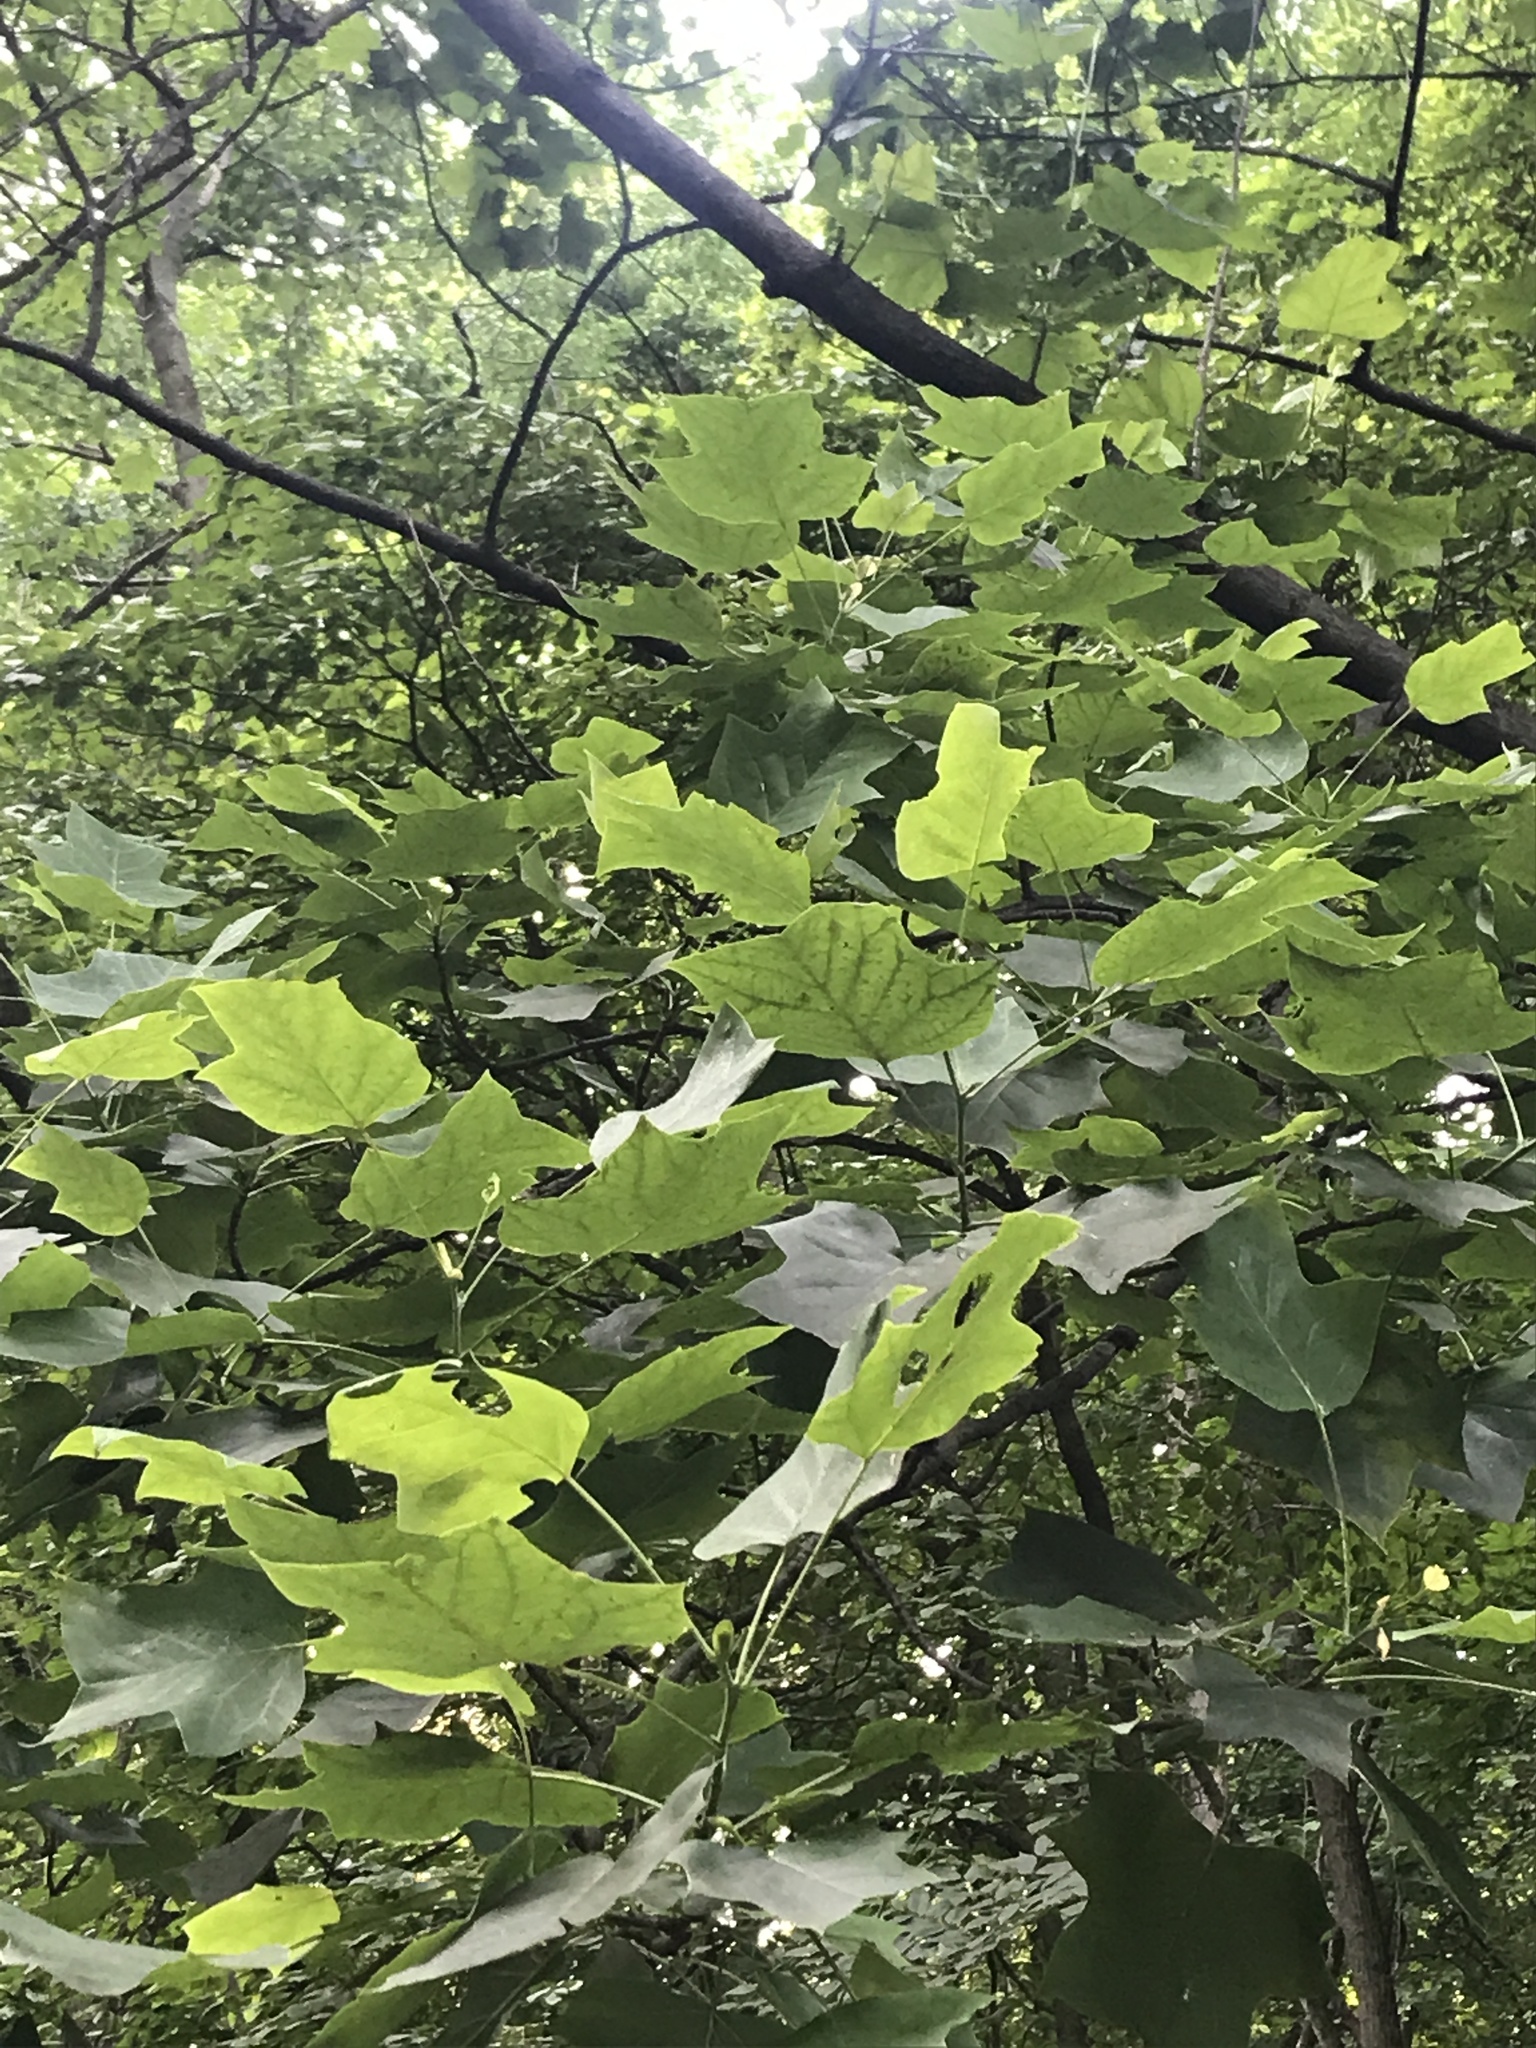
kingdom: Plantae
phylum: Tracheophyta
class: Magnoliopsida
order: Magnoliales
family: Magnoliaceae
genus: Liriodendron
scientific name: Liriodendron tulipifera
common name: Tulip tree
